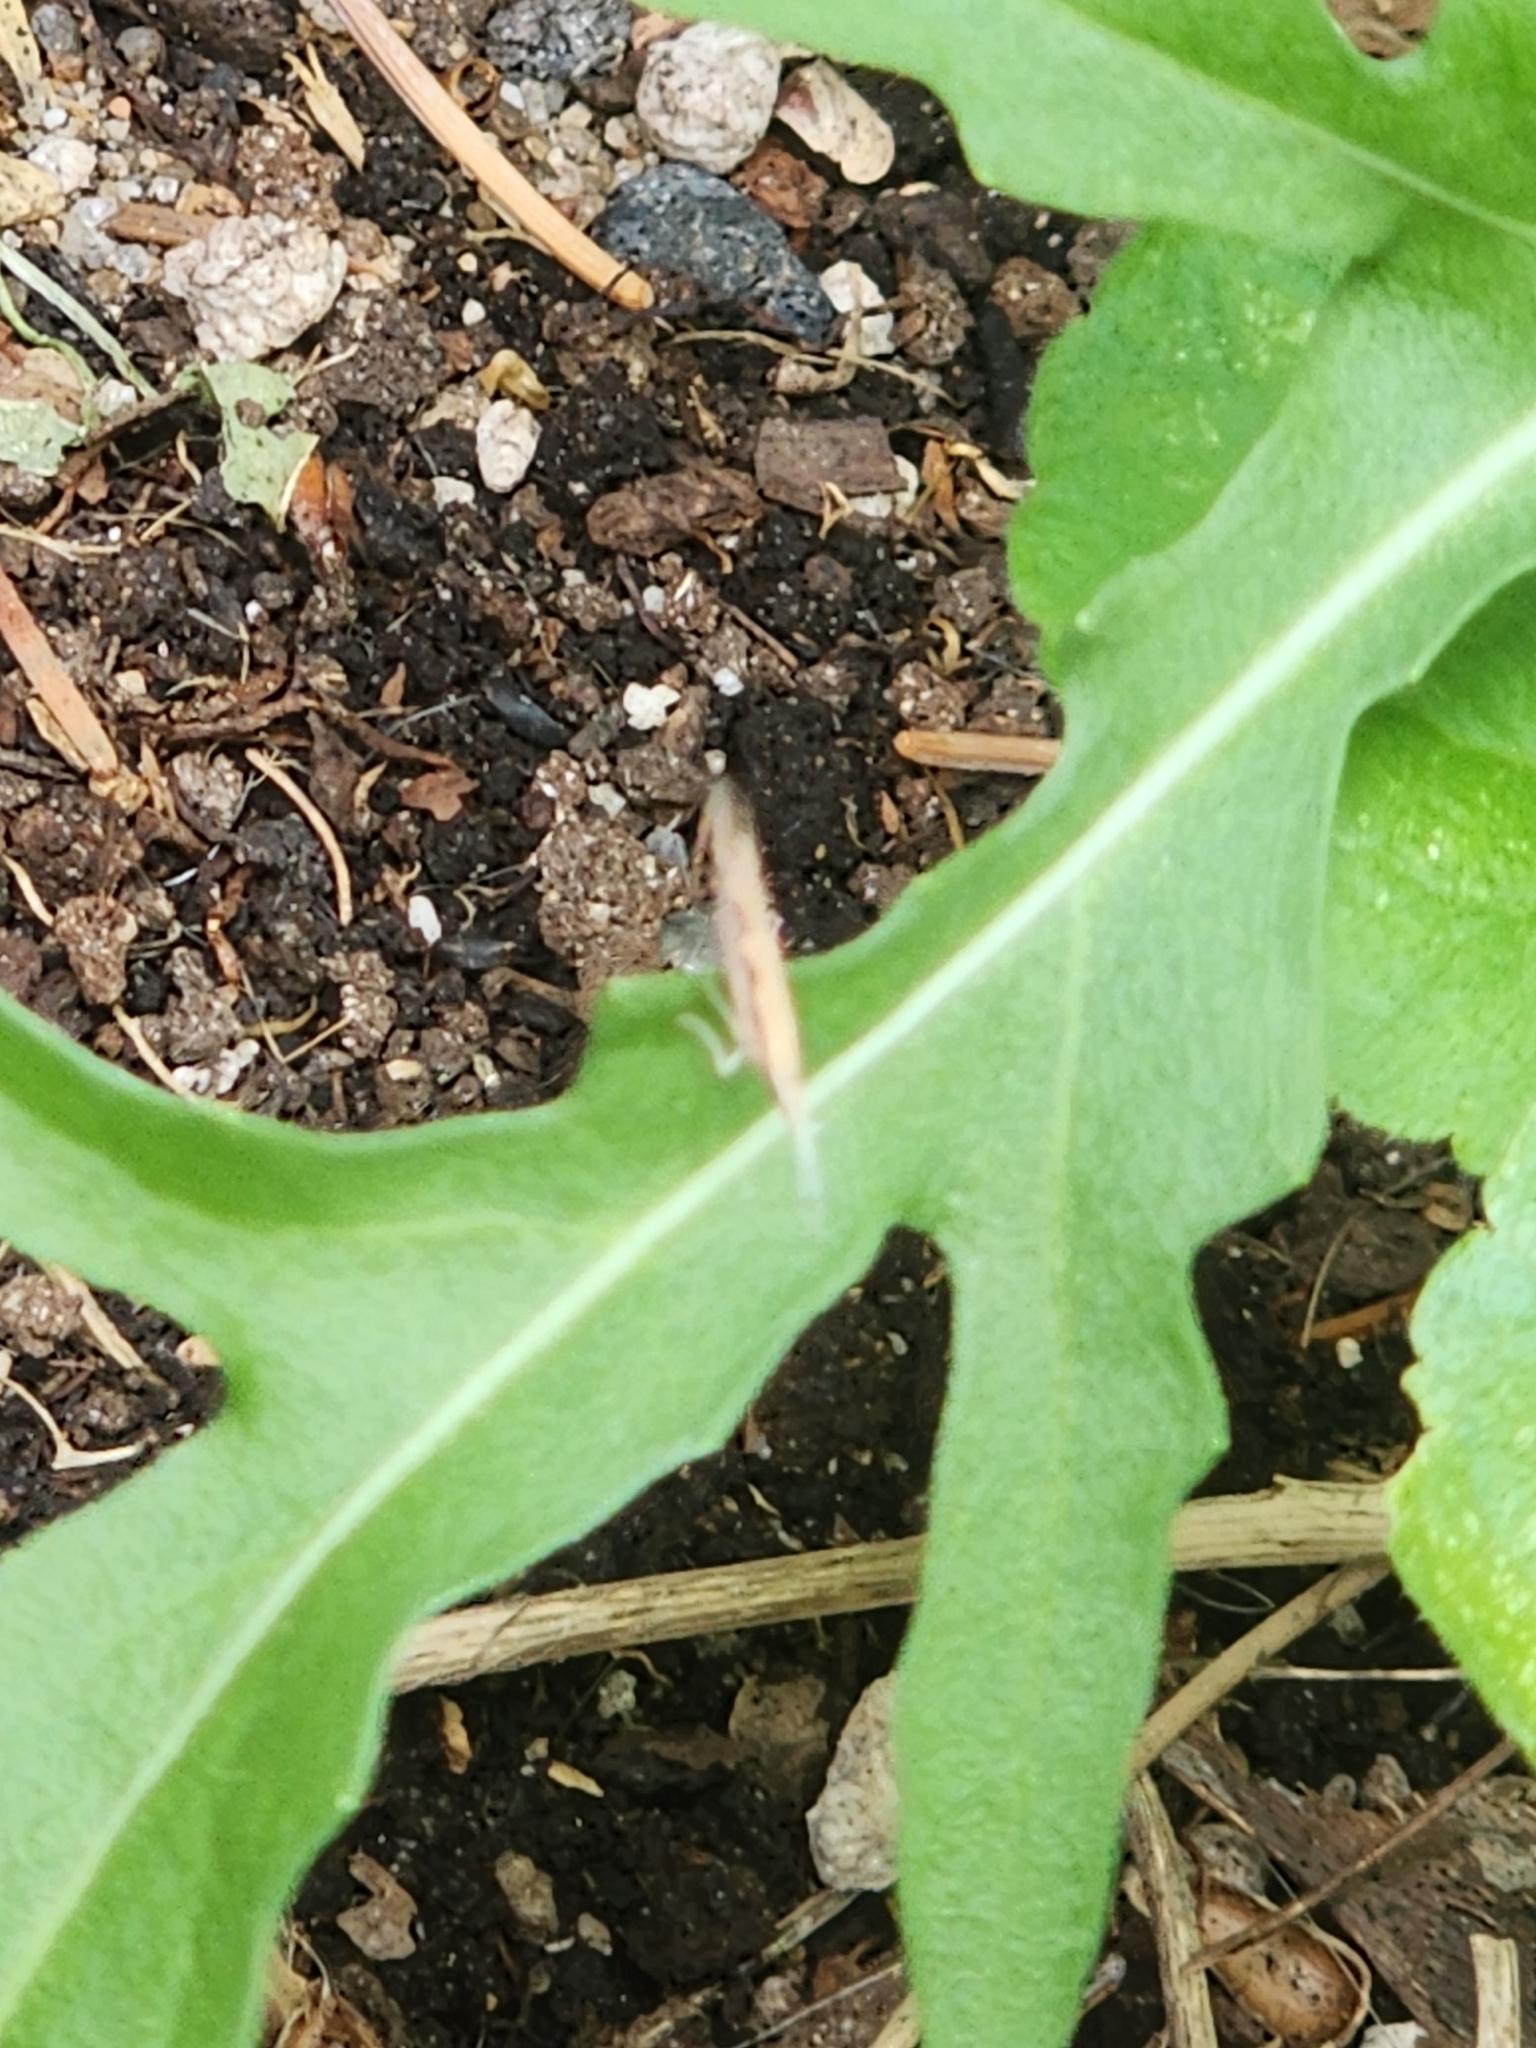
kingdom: Animalia
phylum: Arthropoda
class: Insecta
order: Lepidoptera
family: Plutellidae
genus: Plutella
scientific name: Plutella xylostella
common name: Diamond-back moth
